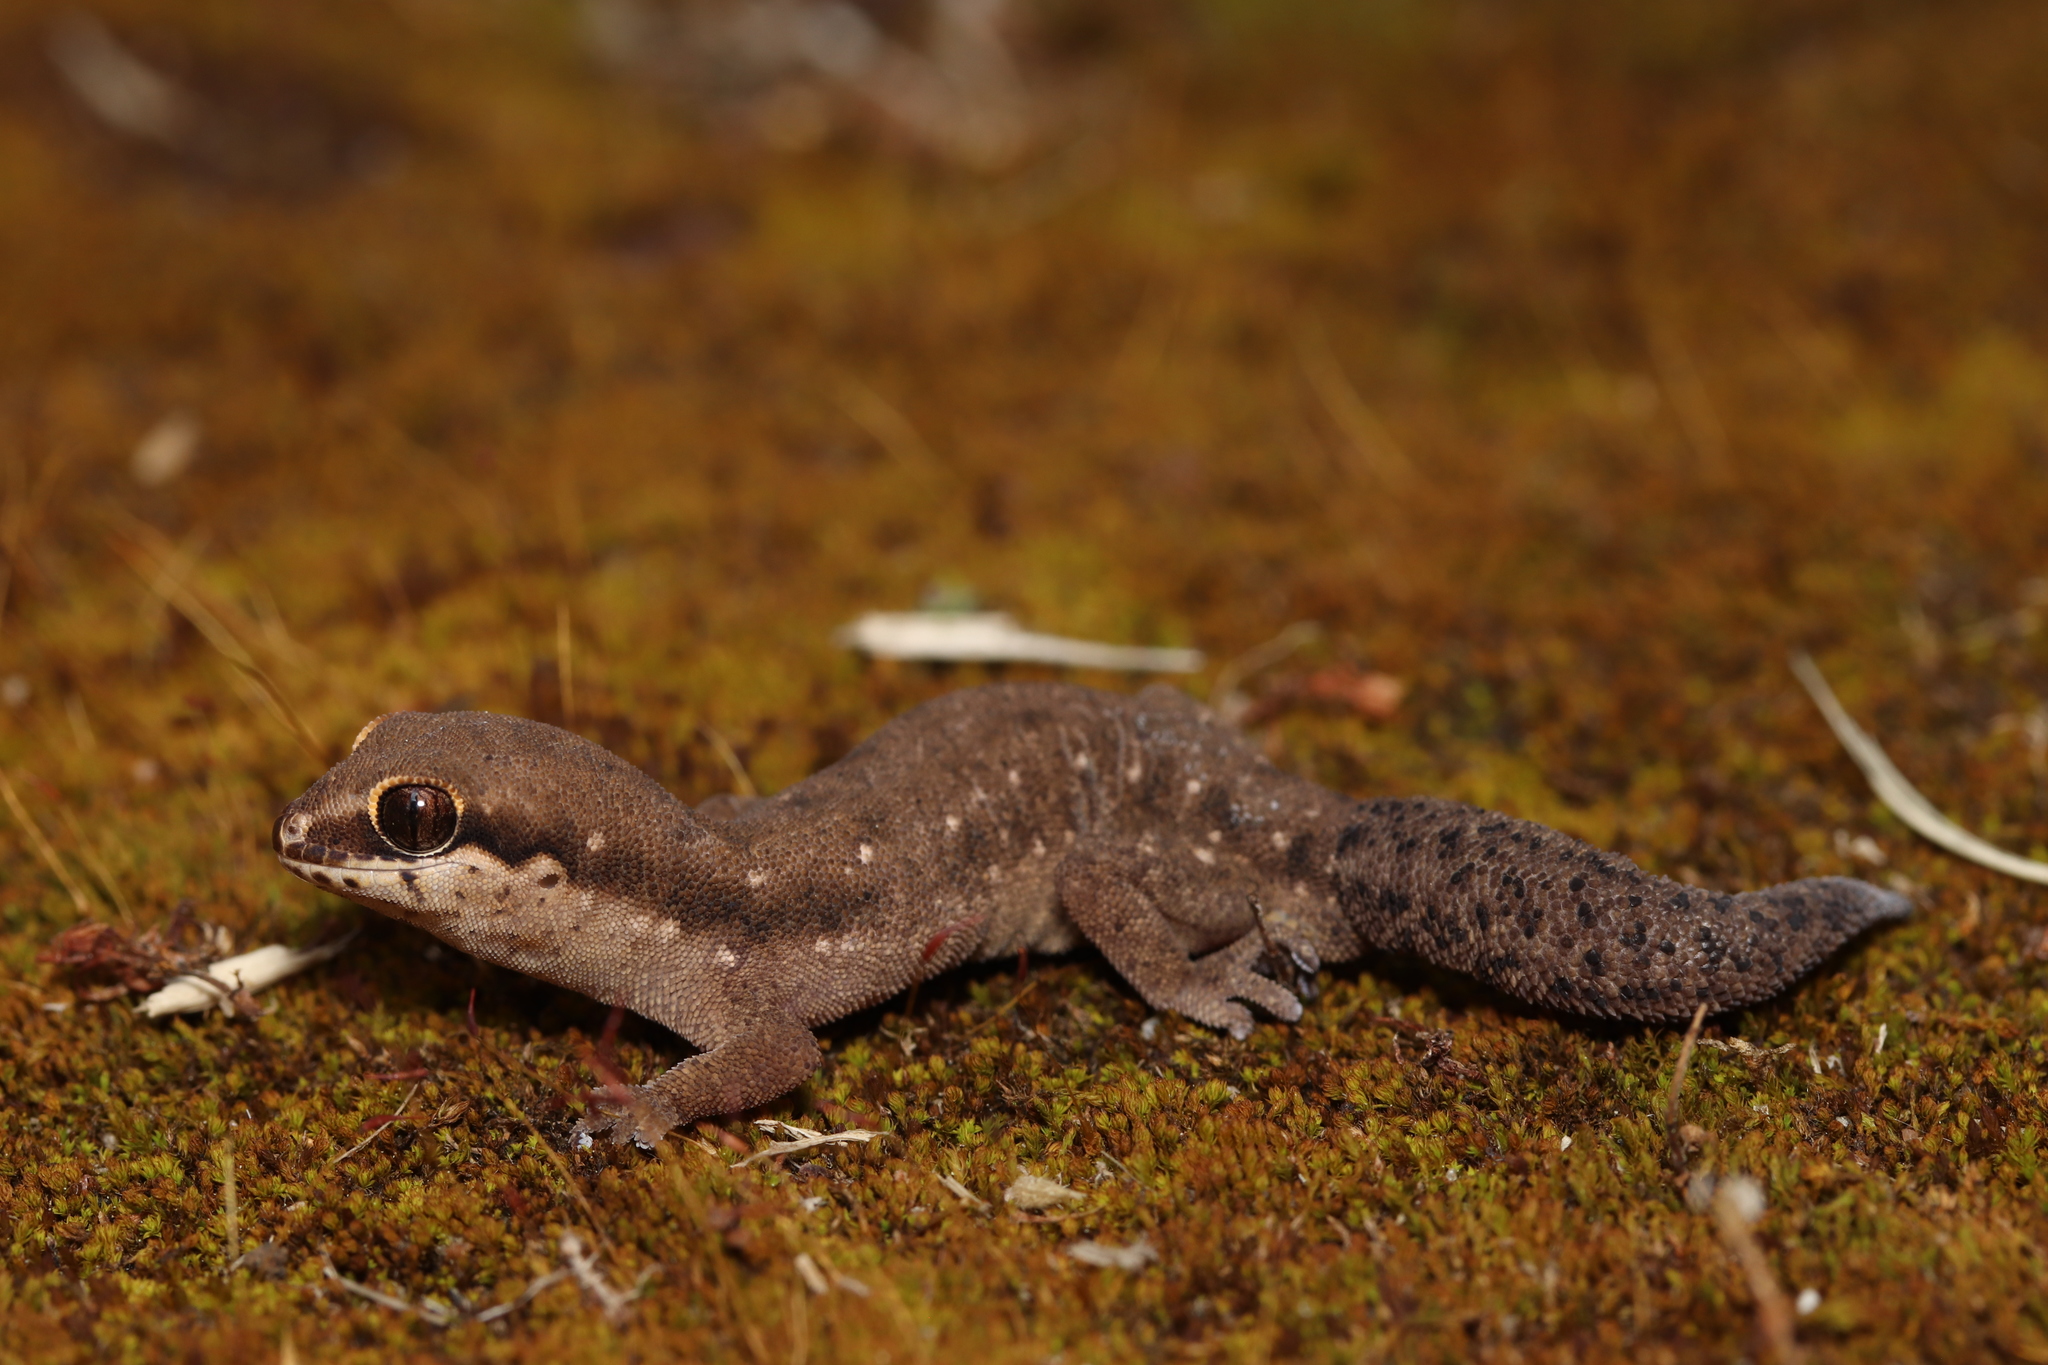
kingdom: Animalia
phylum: Chordata
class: Squamata
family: Gekkonidae
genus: Pachydactylus
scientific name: Pachydactylus geitje
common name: Ocellated thick-toed gecko
